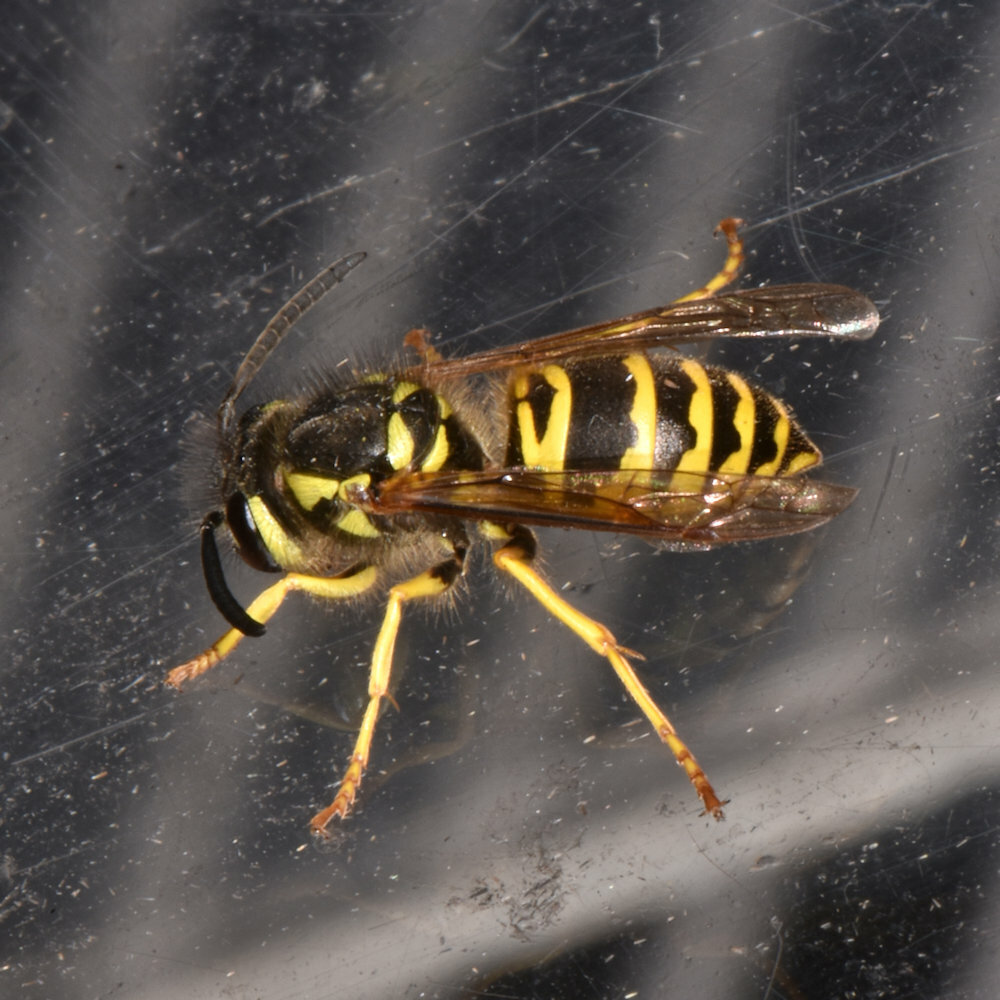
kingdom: Animalia
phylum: Arthropoda
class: Insecta
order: Hymenoptera
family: Vespidae
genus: Vespula
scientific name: Vespula maculifrons
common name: Eastern yellowjacket
